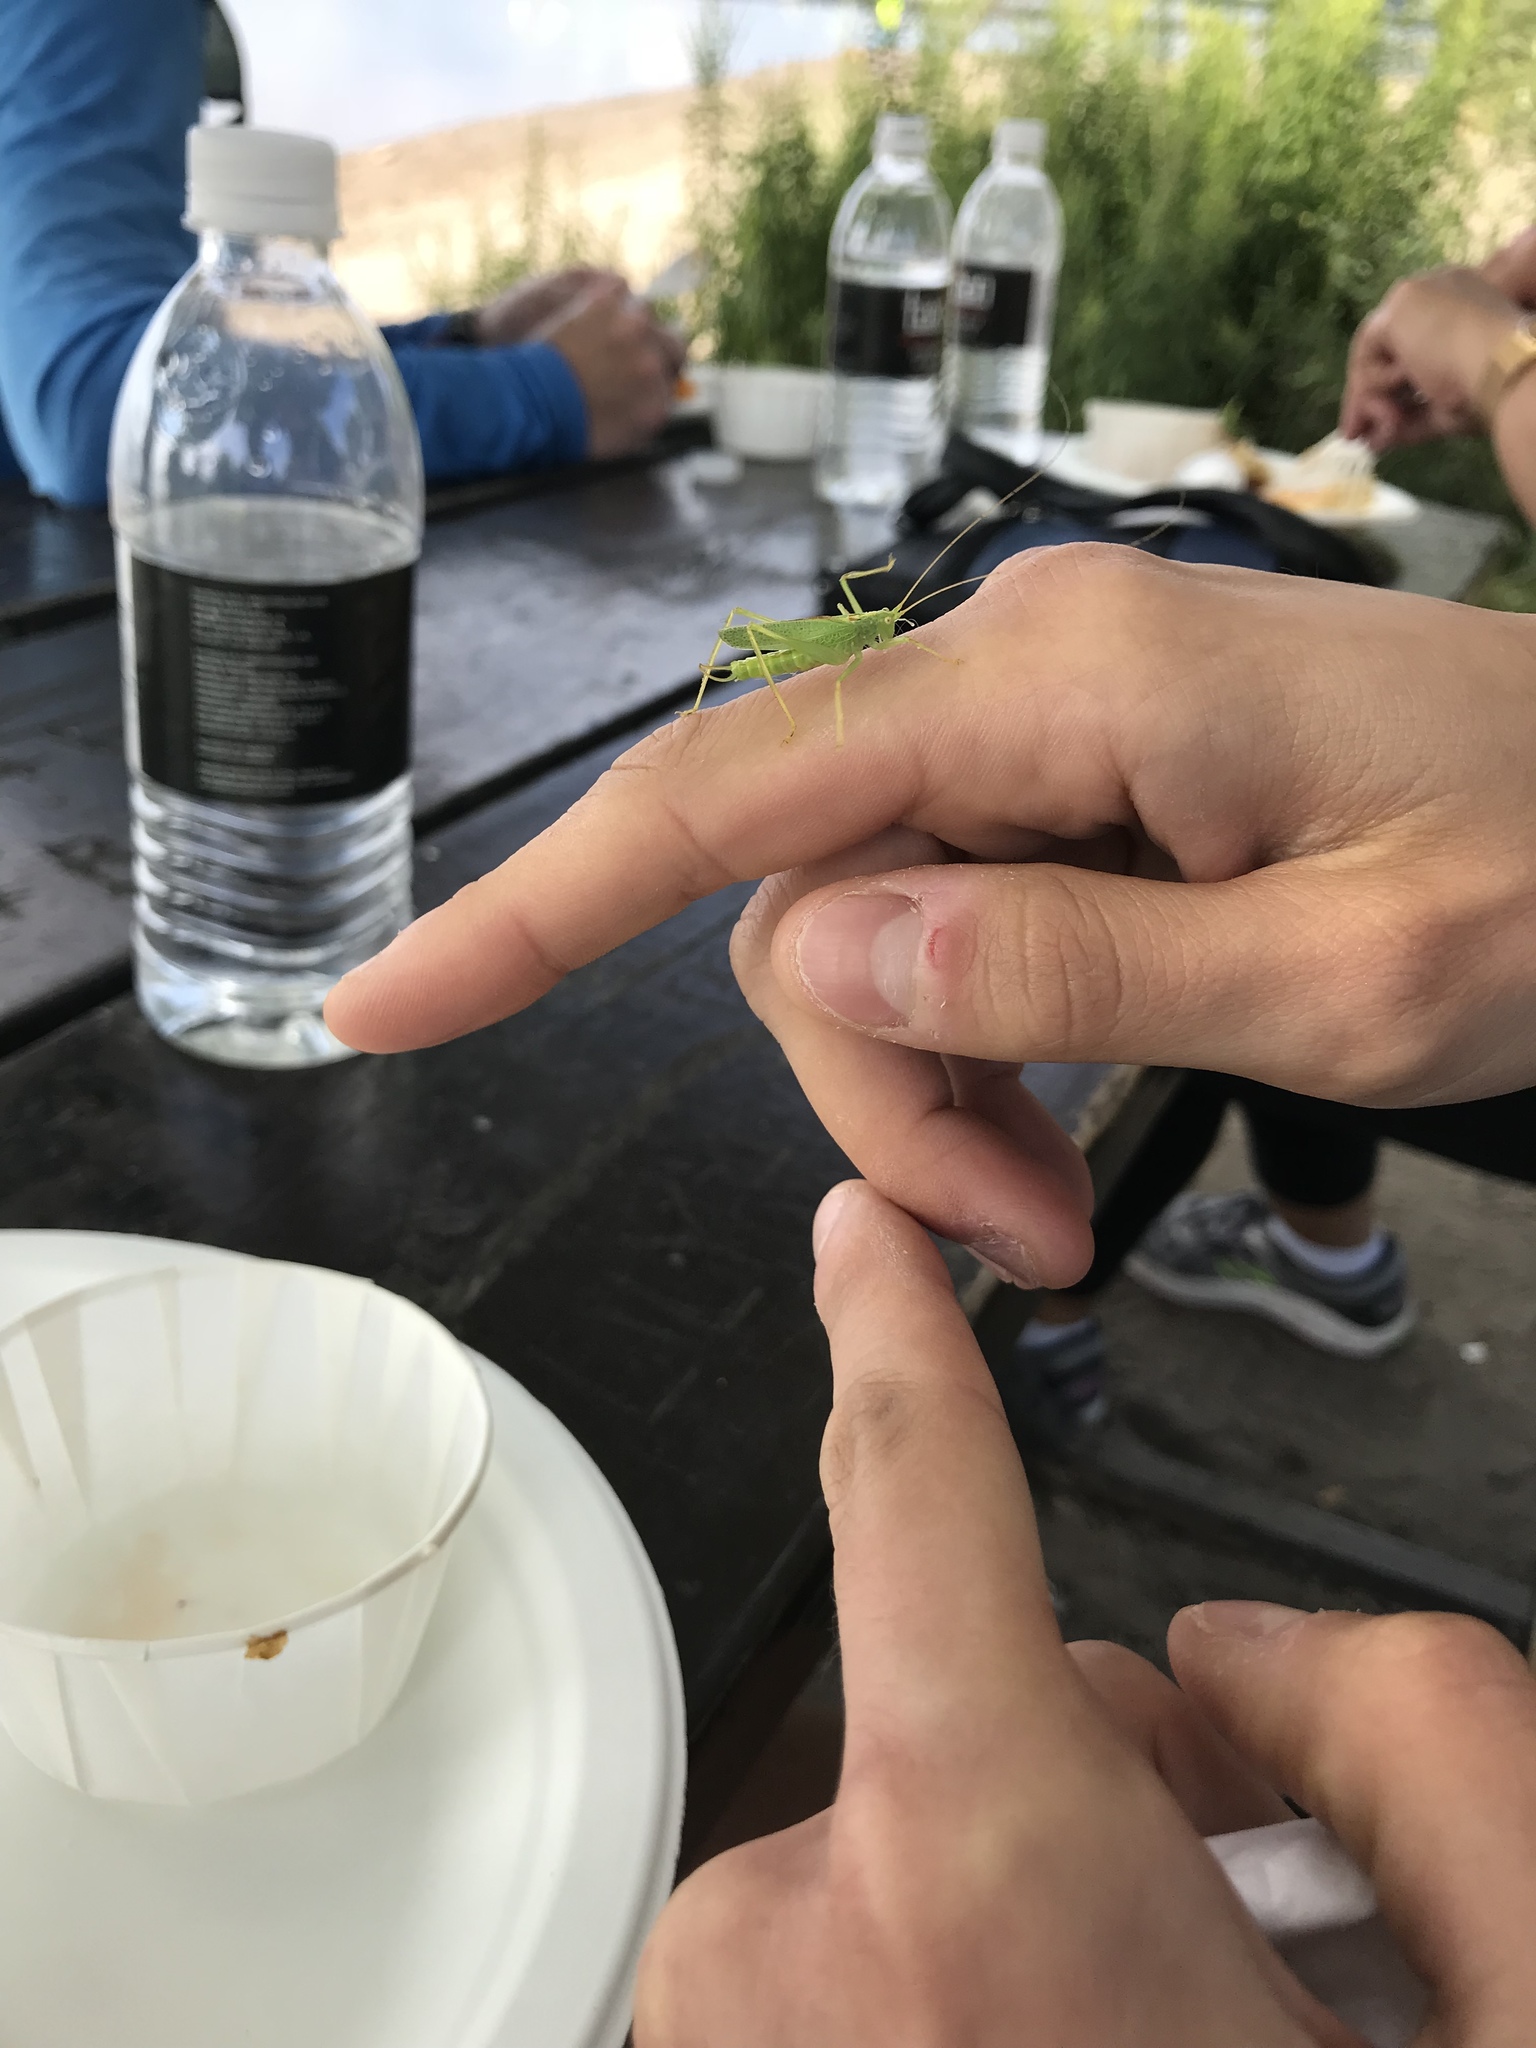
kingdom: Animalia
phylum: Arthropoda
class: Insecta
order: Orthoptera
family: Tettigoniidae
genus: Meconema
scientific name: Meconema thalassinum
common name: Oak bush-cricket
